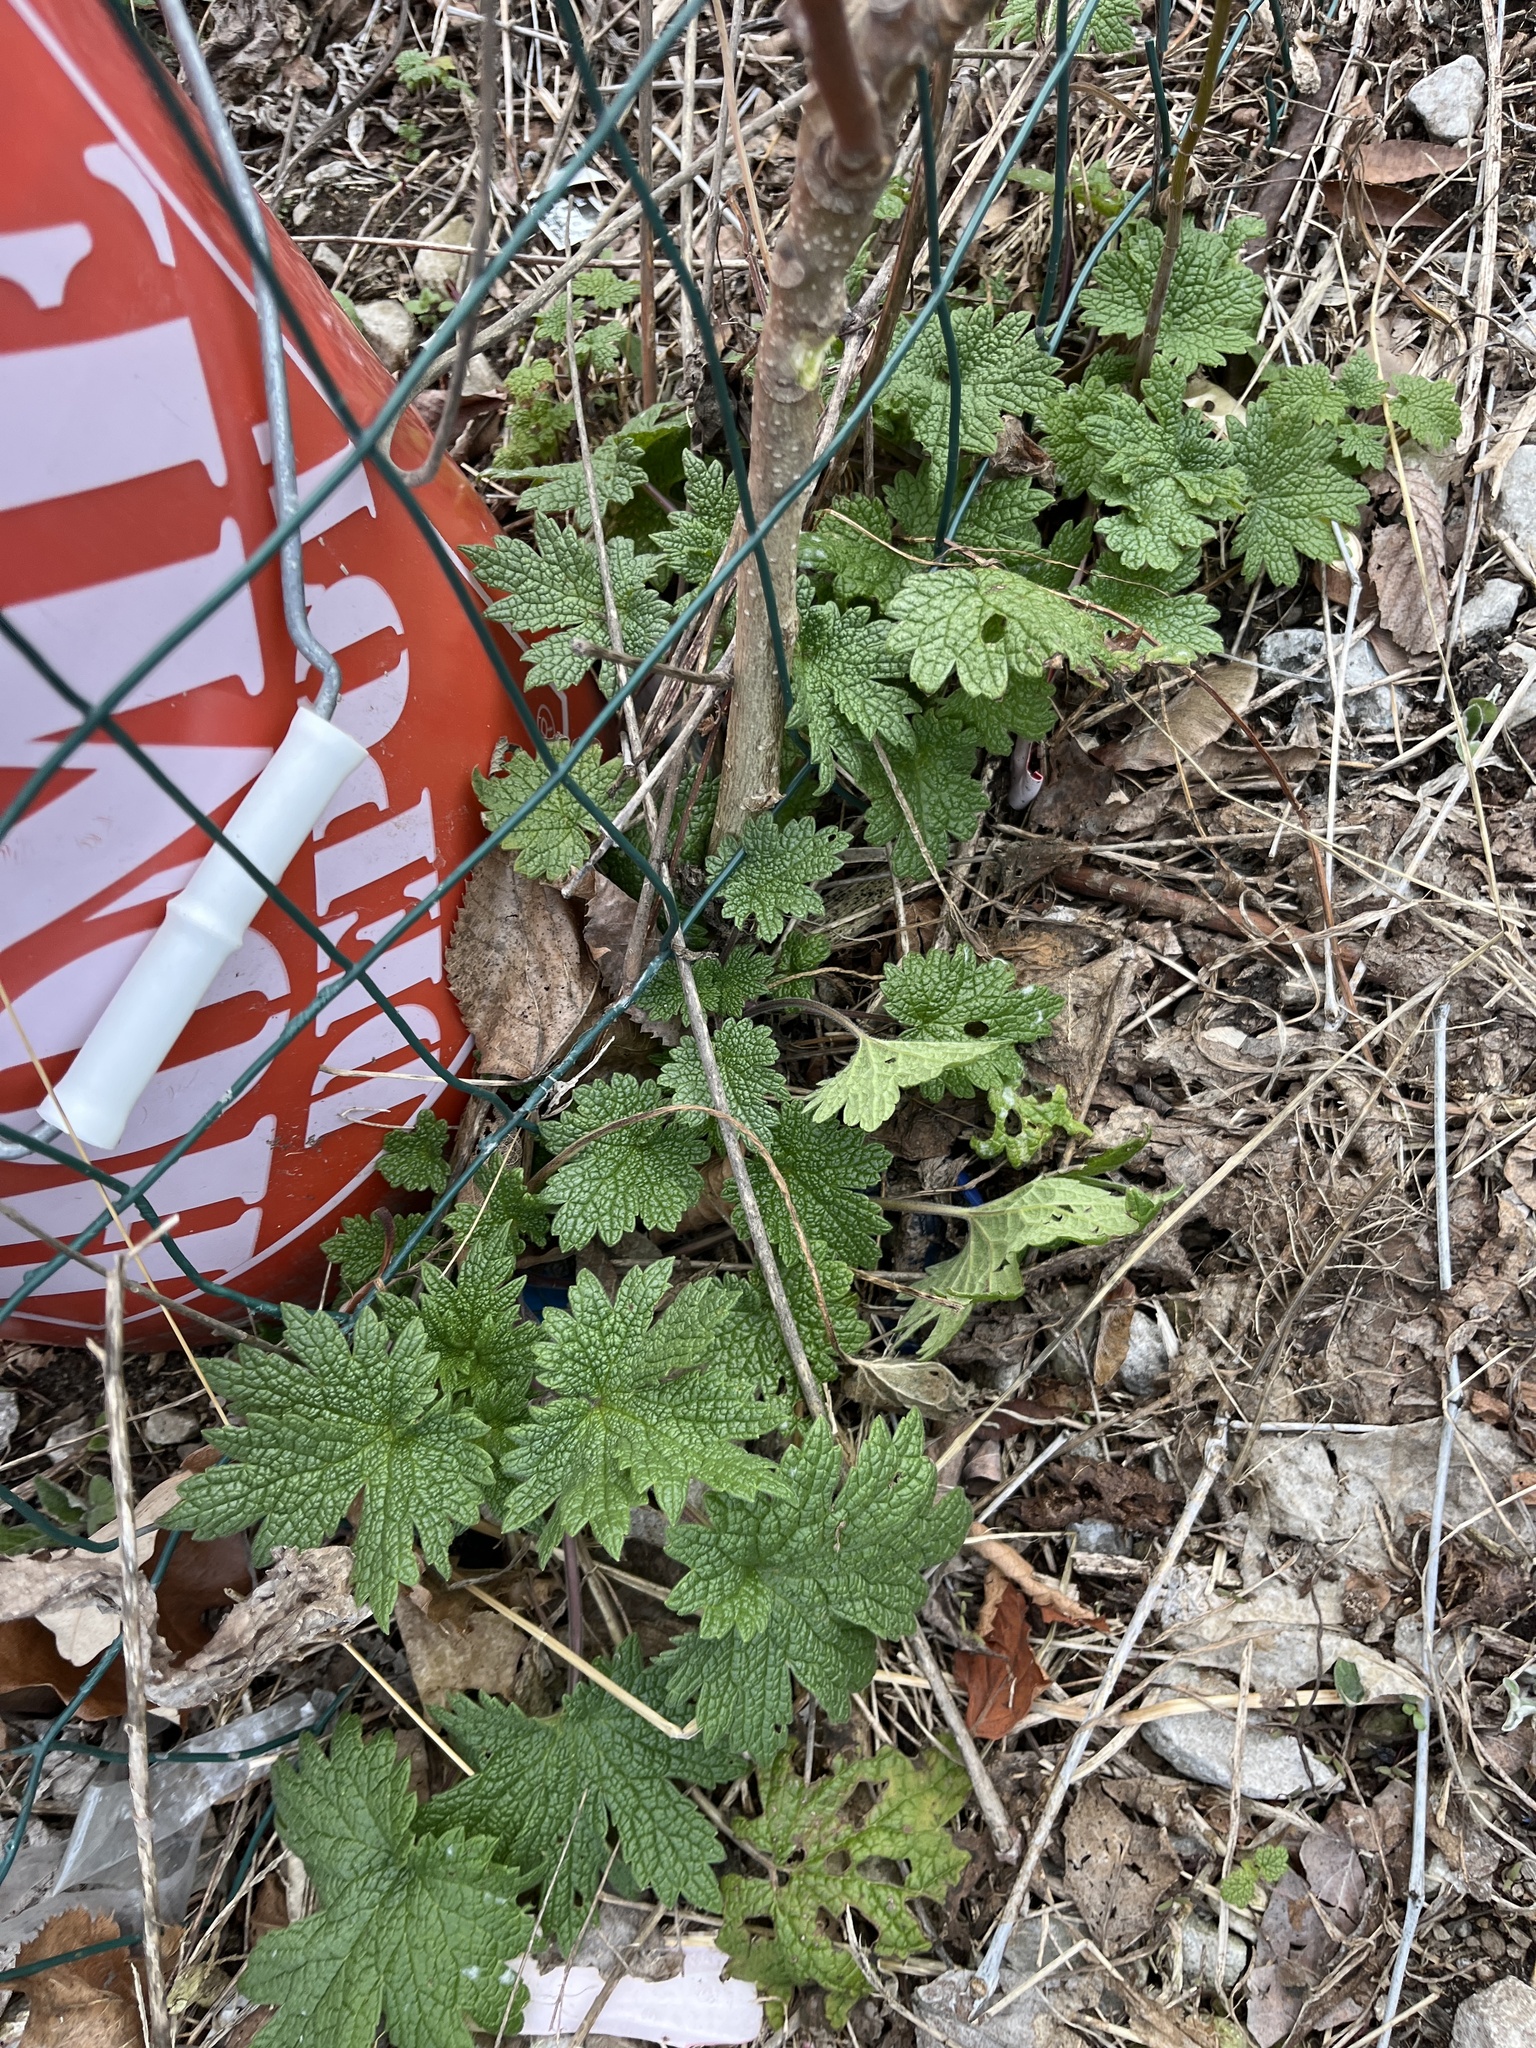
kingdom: Plantae
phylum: Tracheophyta
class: Magnoliopsida
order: Lamiales
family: Lamiaceae
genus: Leonurus
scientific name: Leonurus cardiaca
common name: Motherwort
